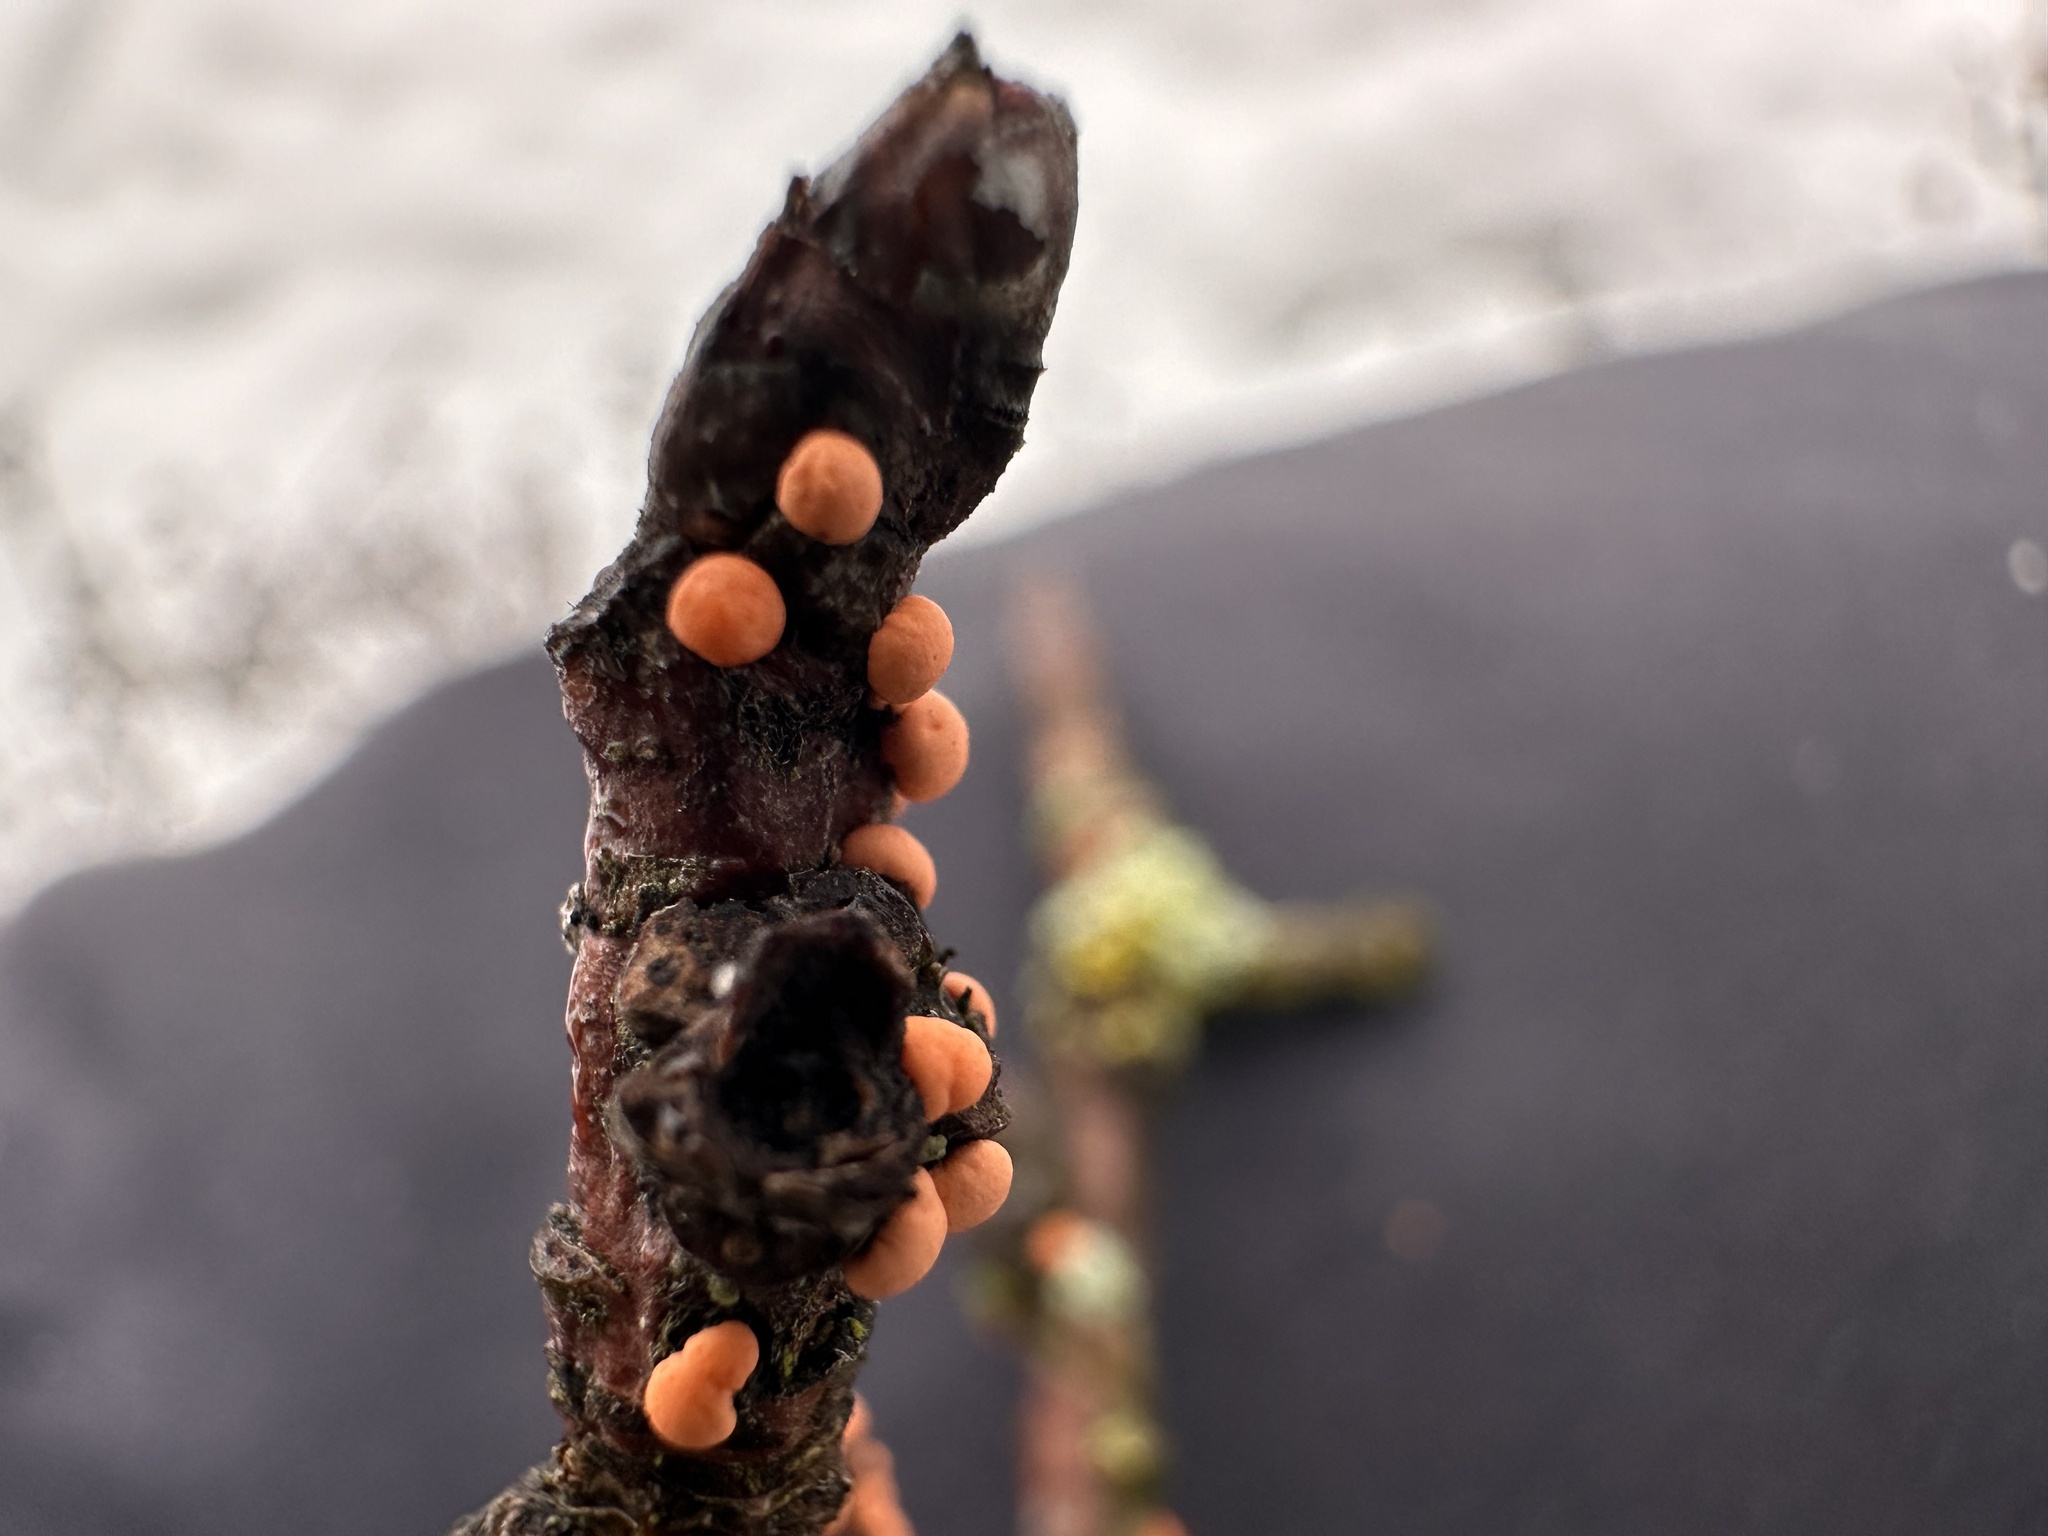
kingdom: Fungi
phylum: Ascomycota
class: Sordariomycetes
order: Hypocreales
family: Nectriaceae
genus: Nectria
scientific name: Nectria cinnabarina
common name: Coral spot
